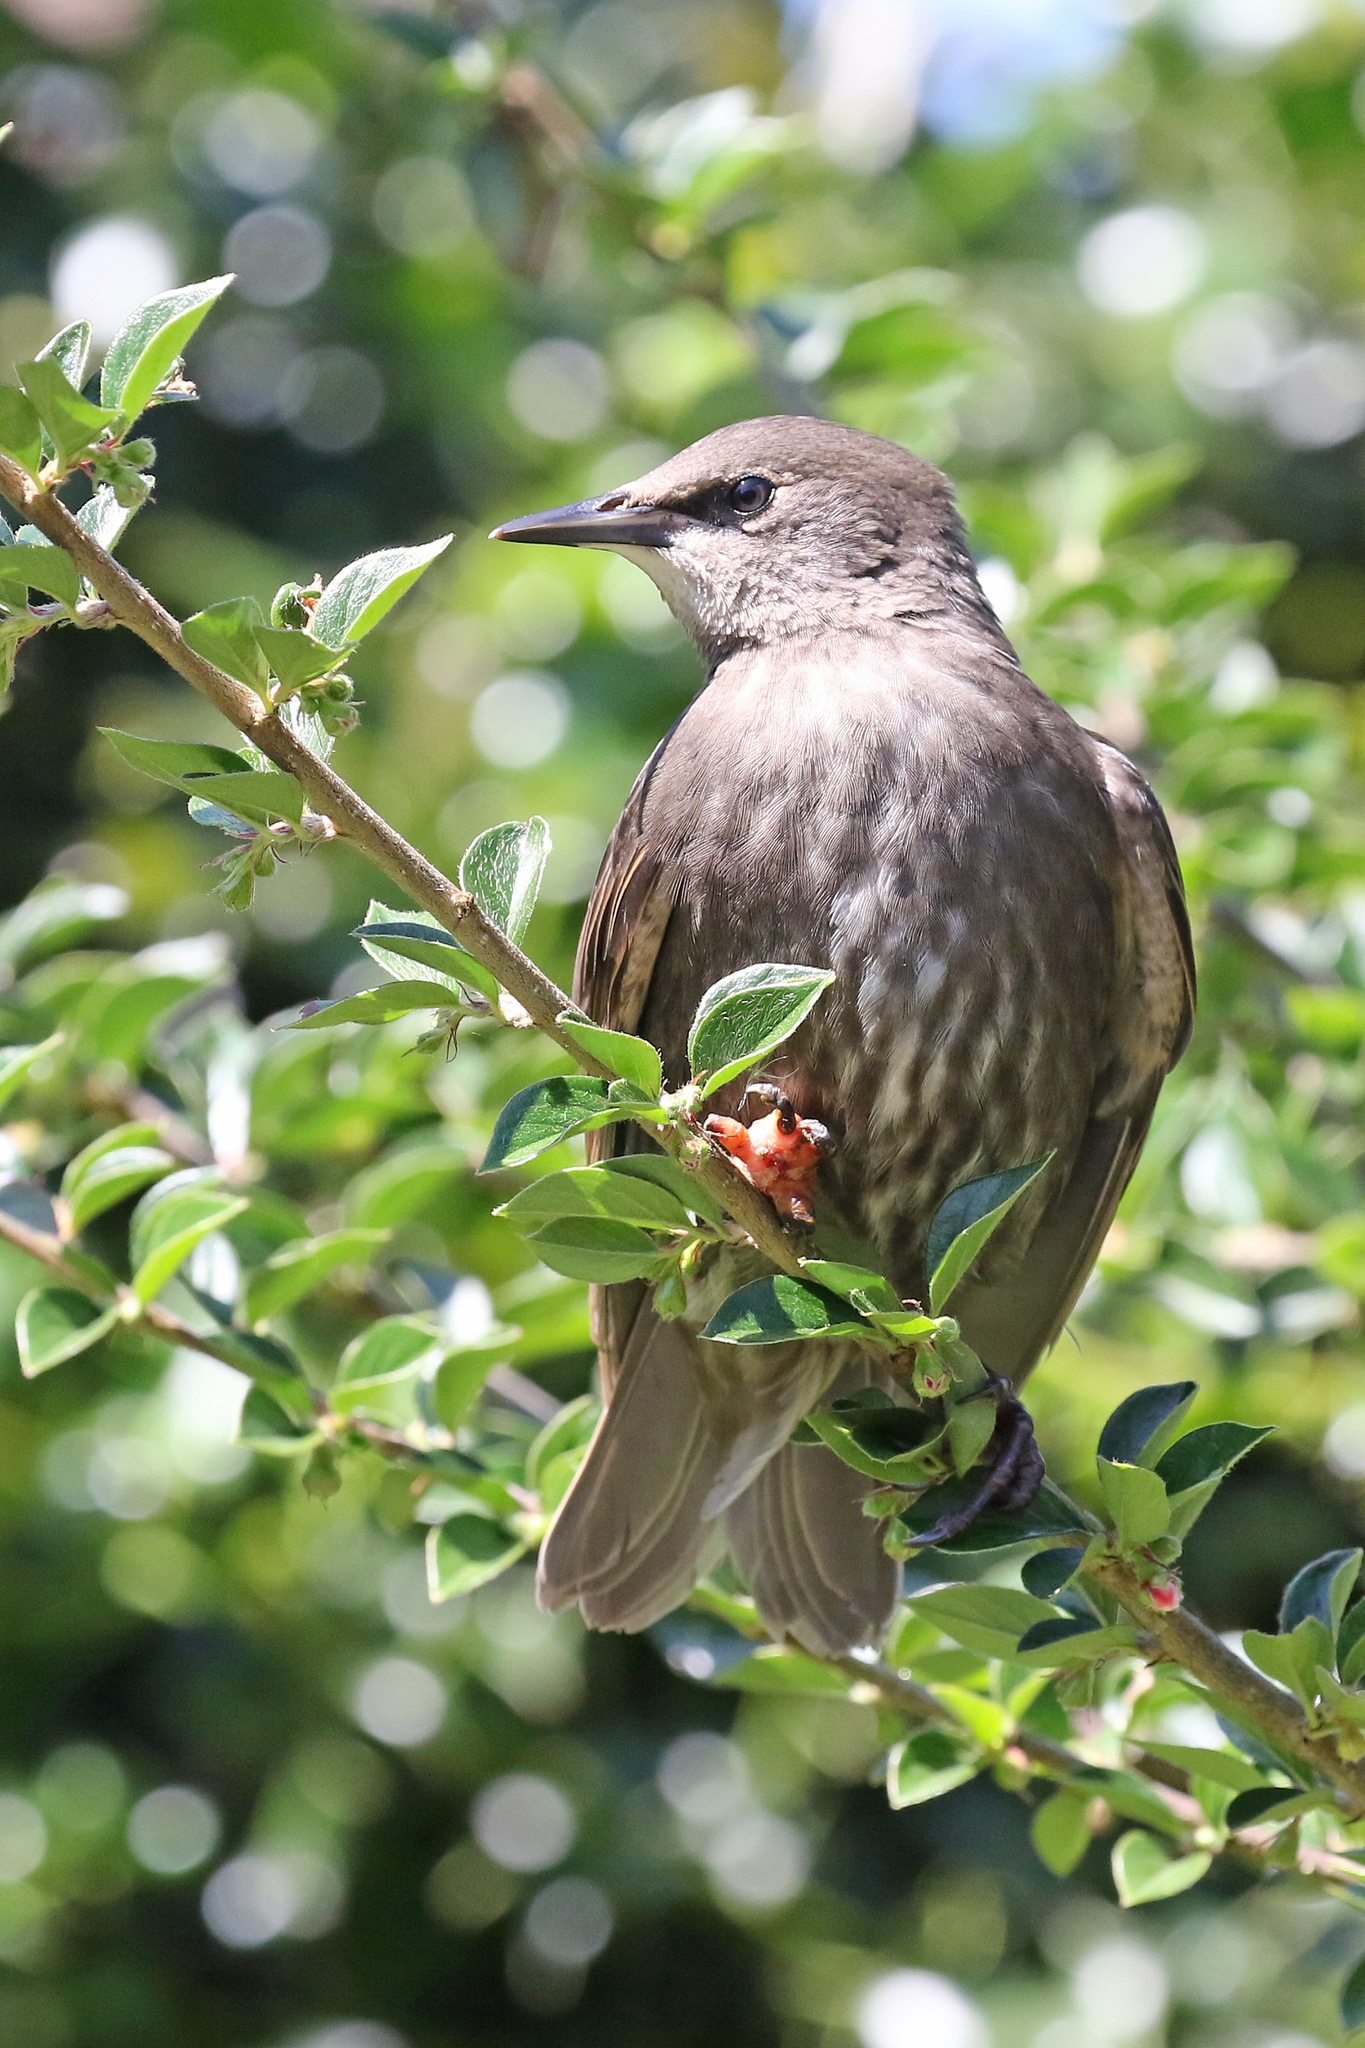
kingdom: Animalia
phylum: Chordata
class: Aves
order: Passeriformes
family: Sturnidae
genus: Sturnus
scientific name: Sturnus vulgaris
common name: Common starling
